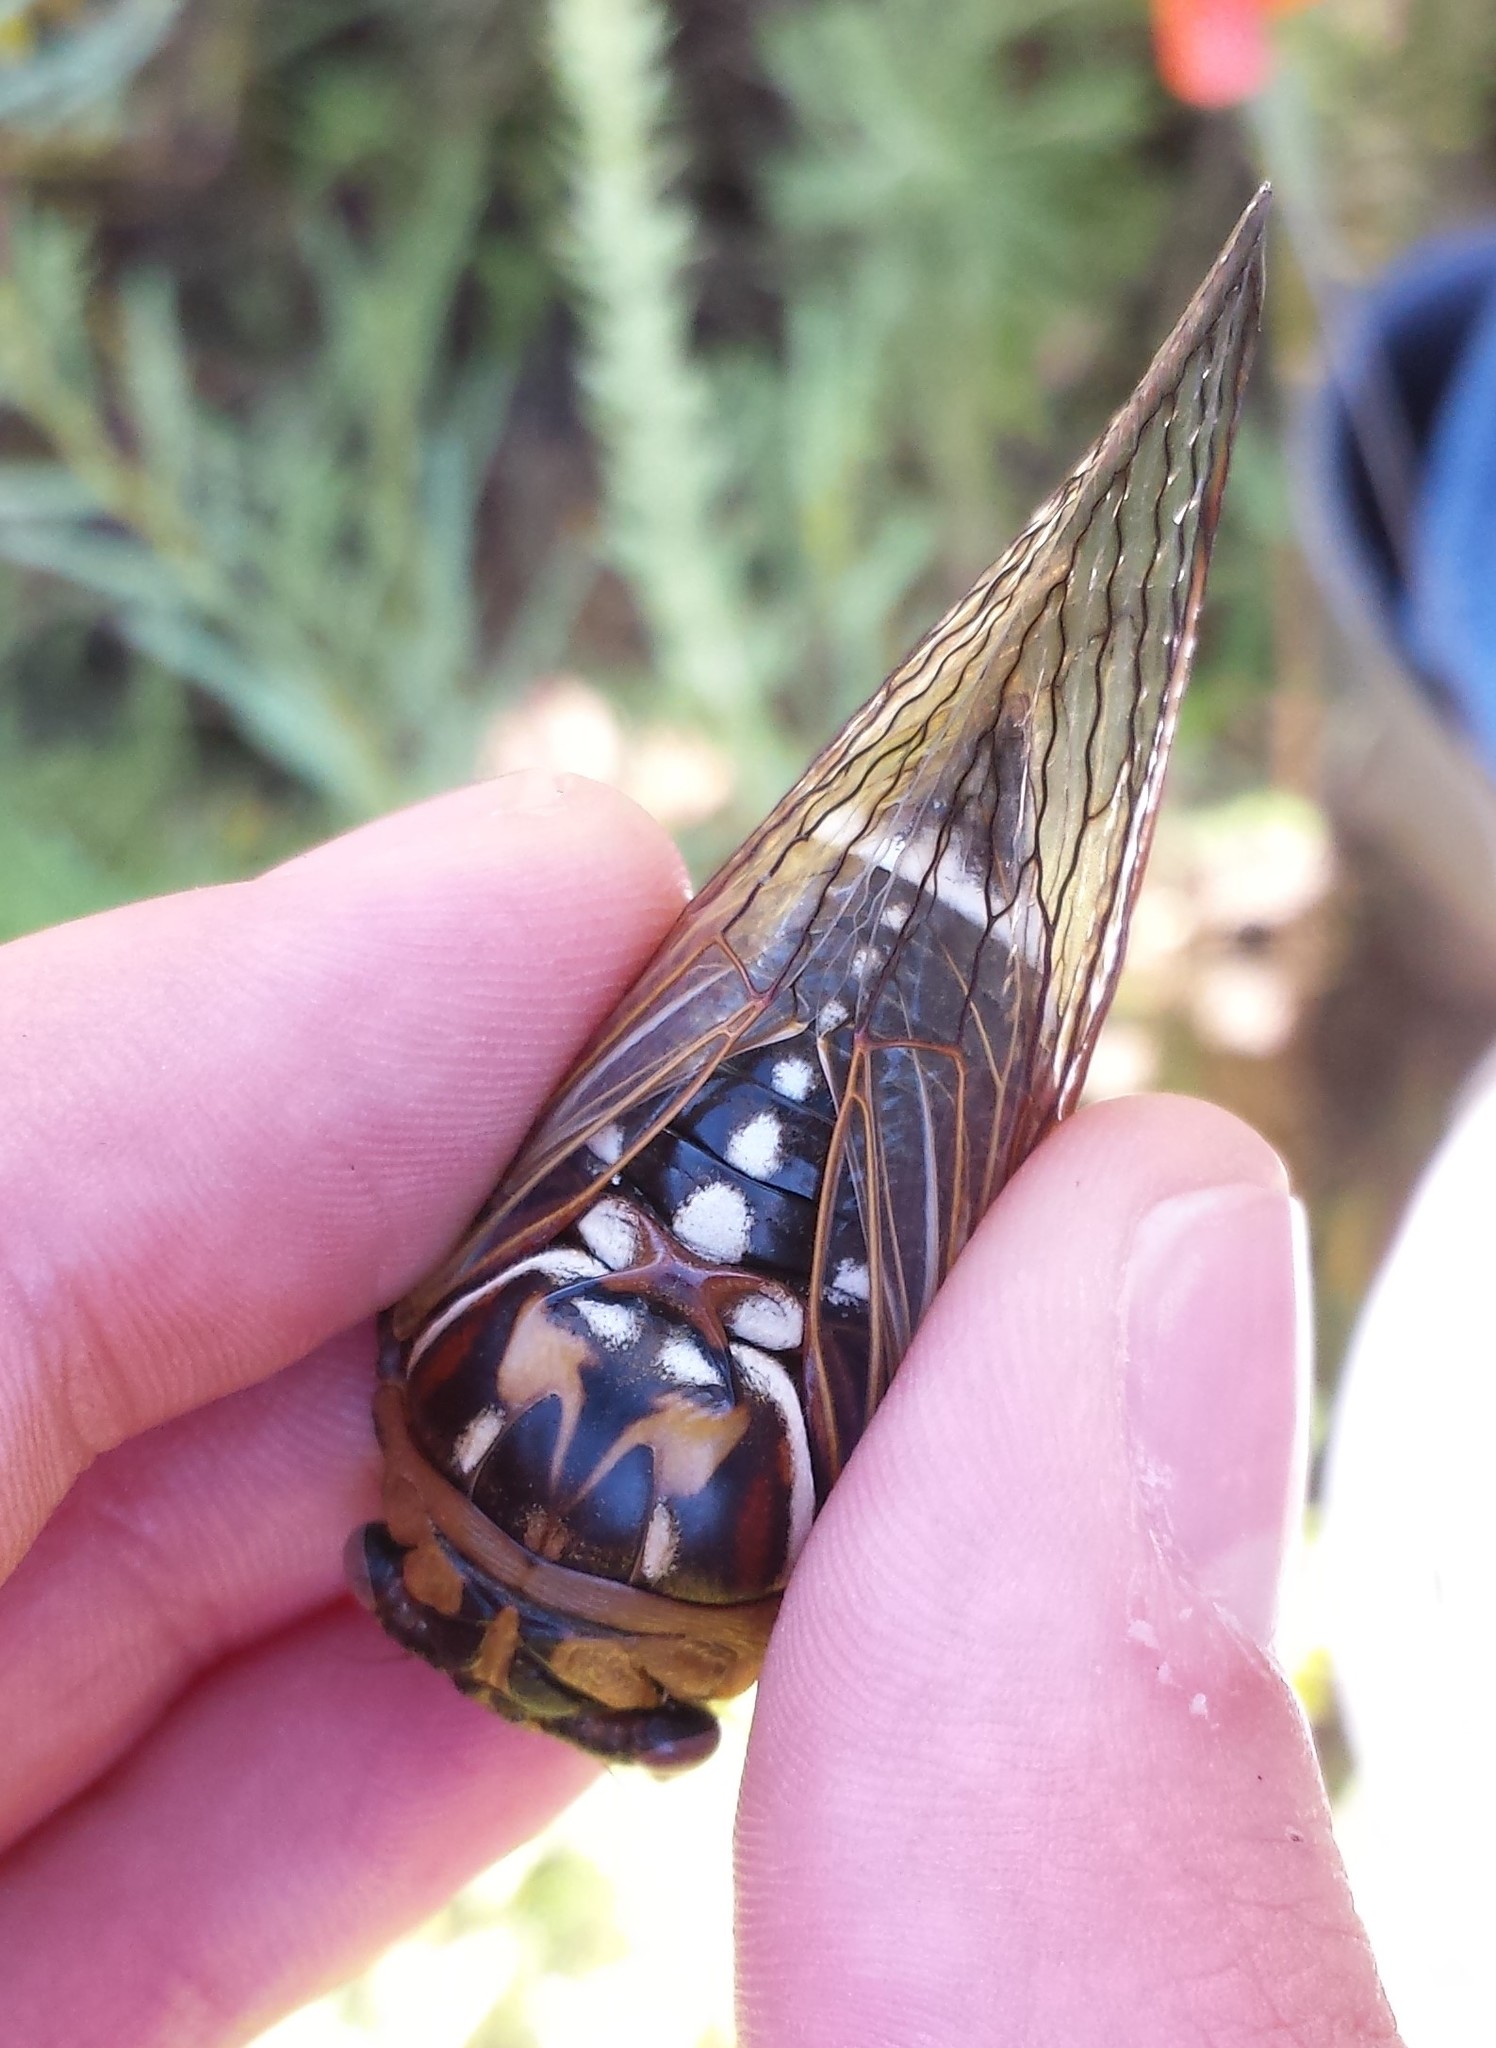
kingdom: Animalia
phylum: Arthropoda
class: Insecta
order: Hemiptera
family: Cicadidae
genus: Megatibicen
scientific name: Megatibicen dorsatus
